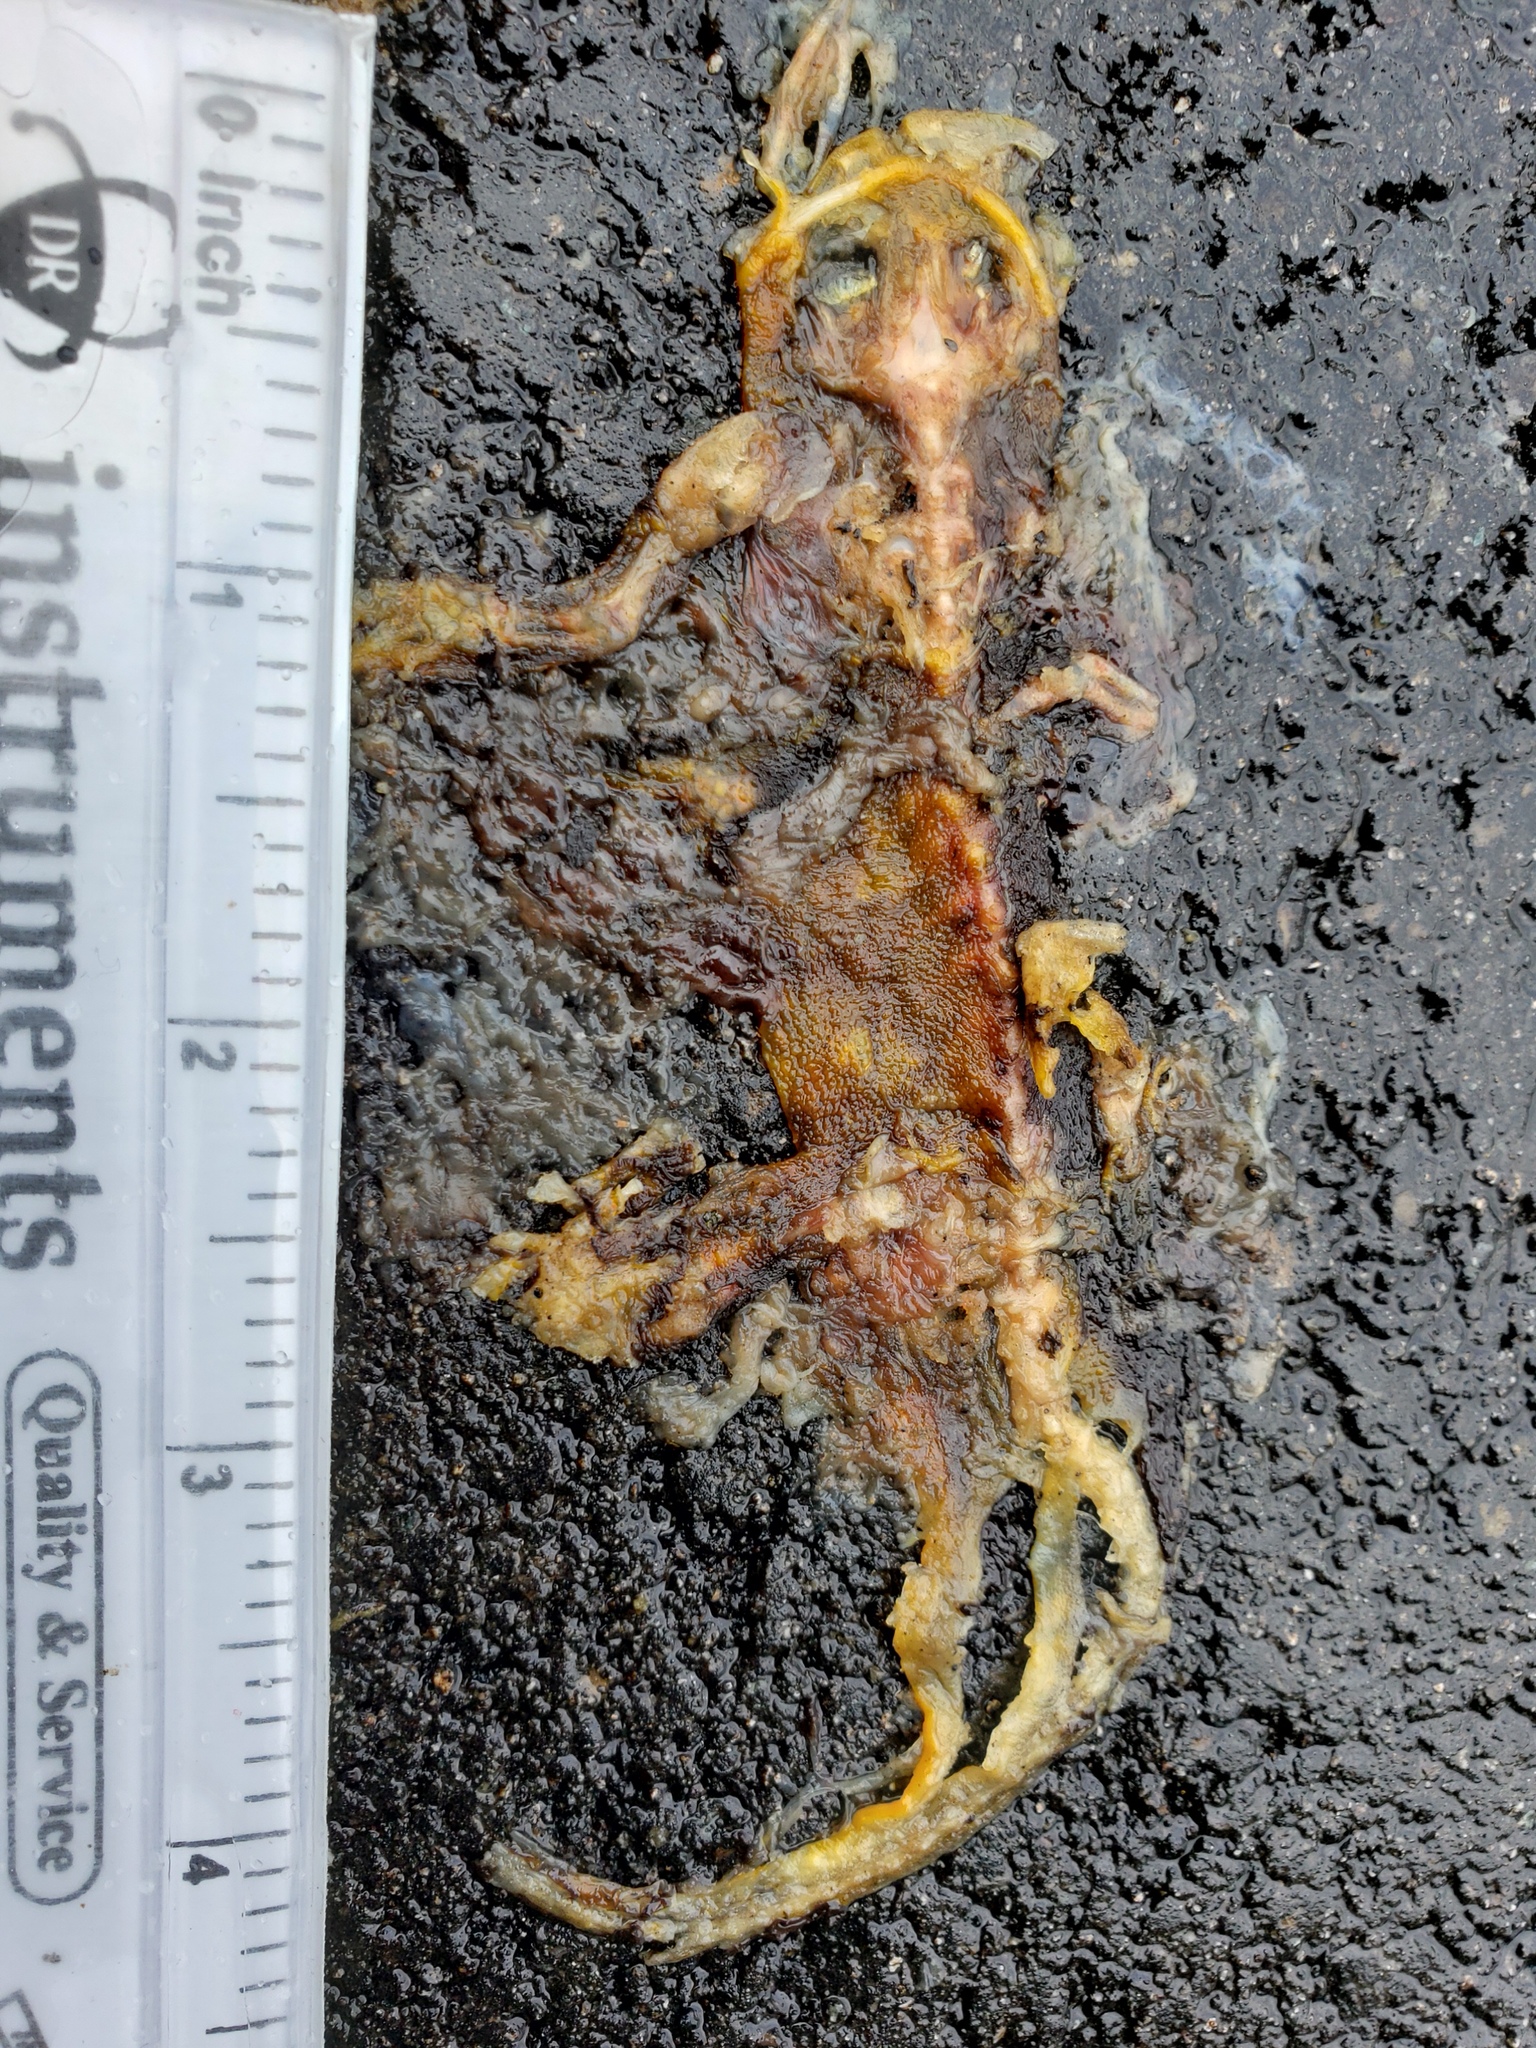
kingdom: Animalia
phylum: Chordata
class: Amphibia
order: Caudata
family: Salamandridae
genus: Taricha
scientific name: Taricha
